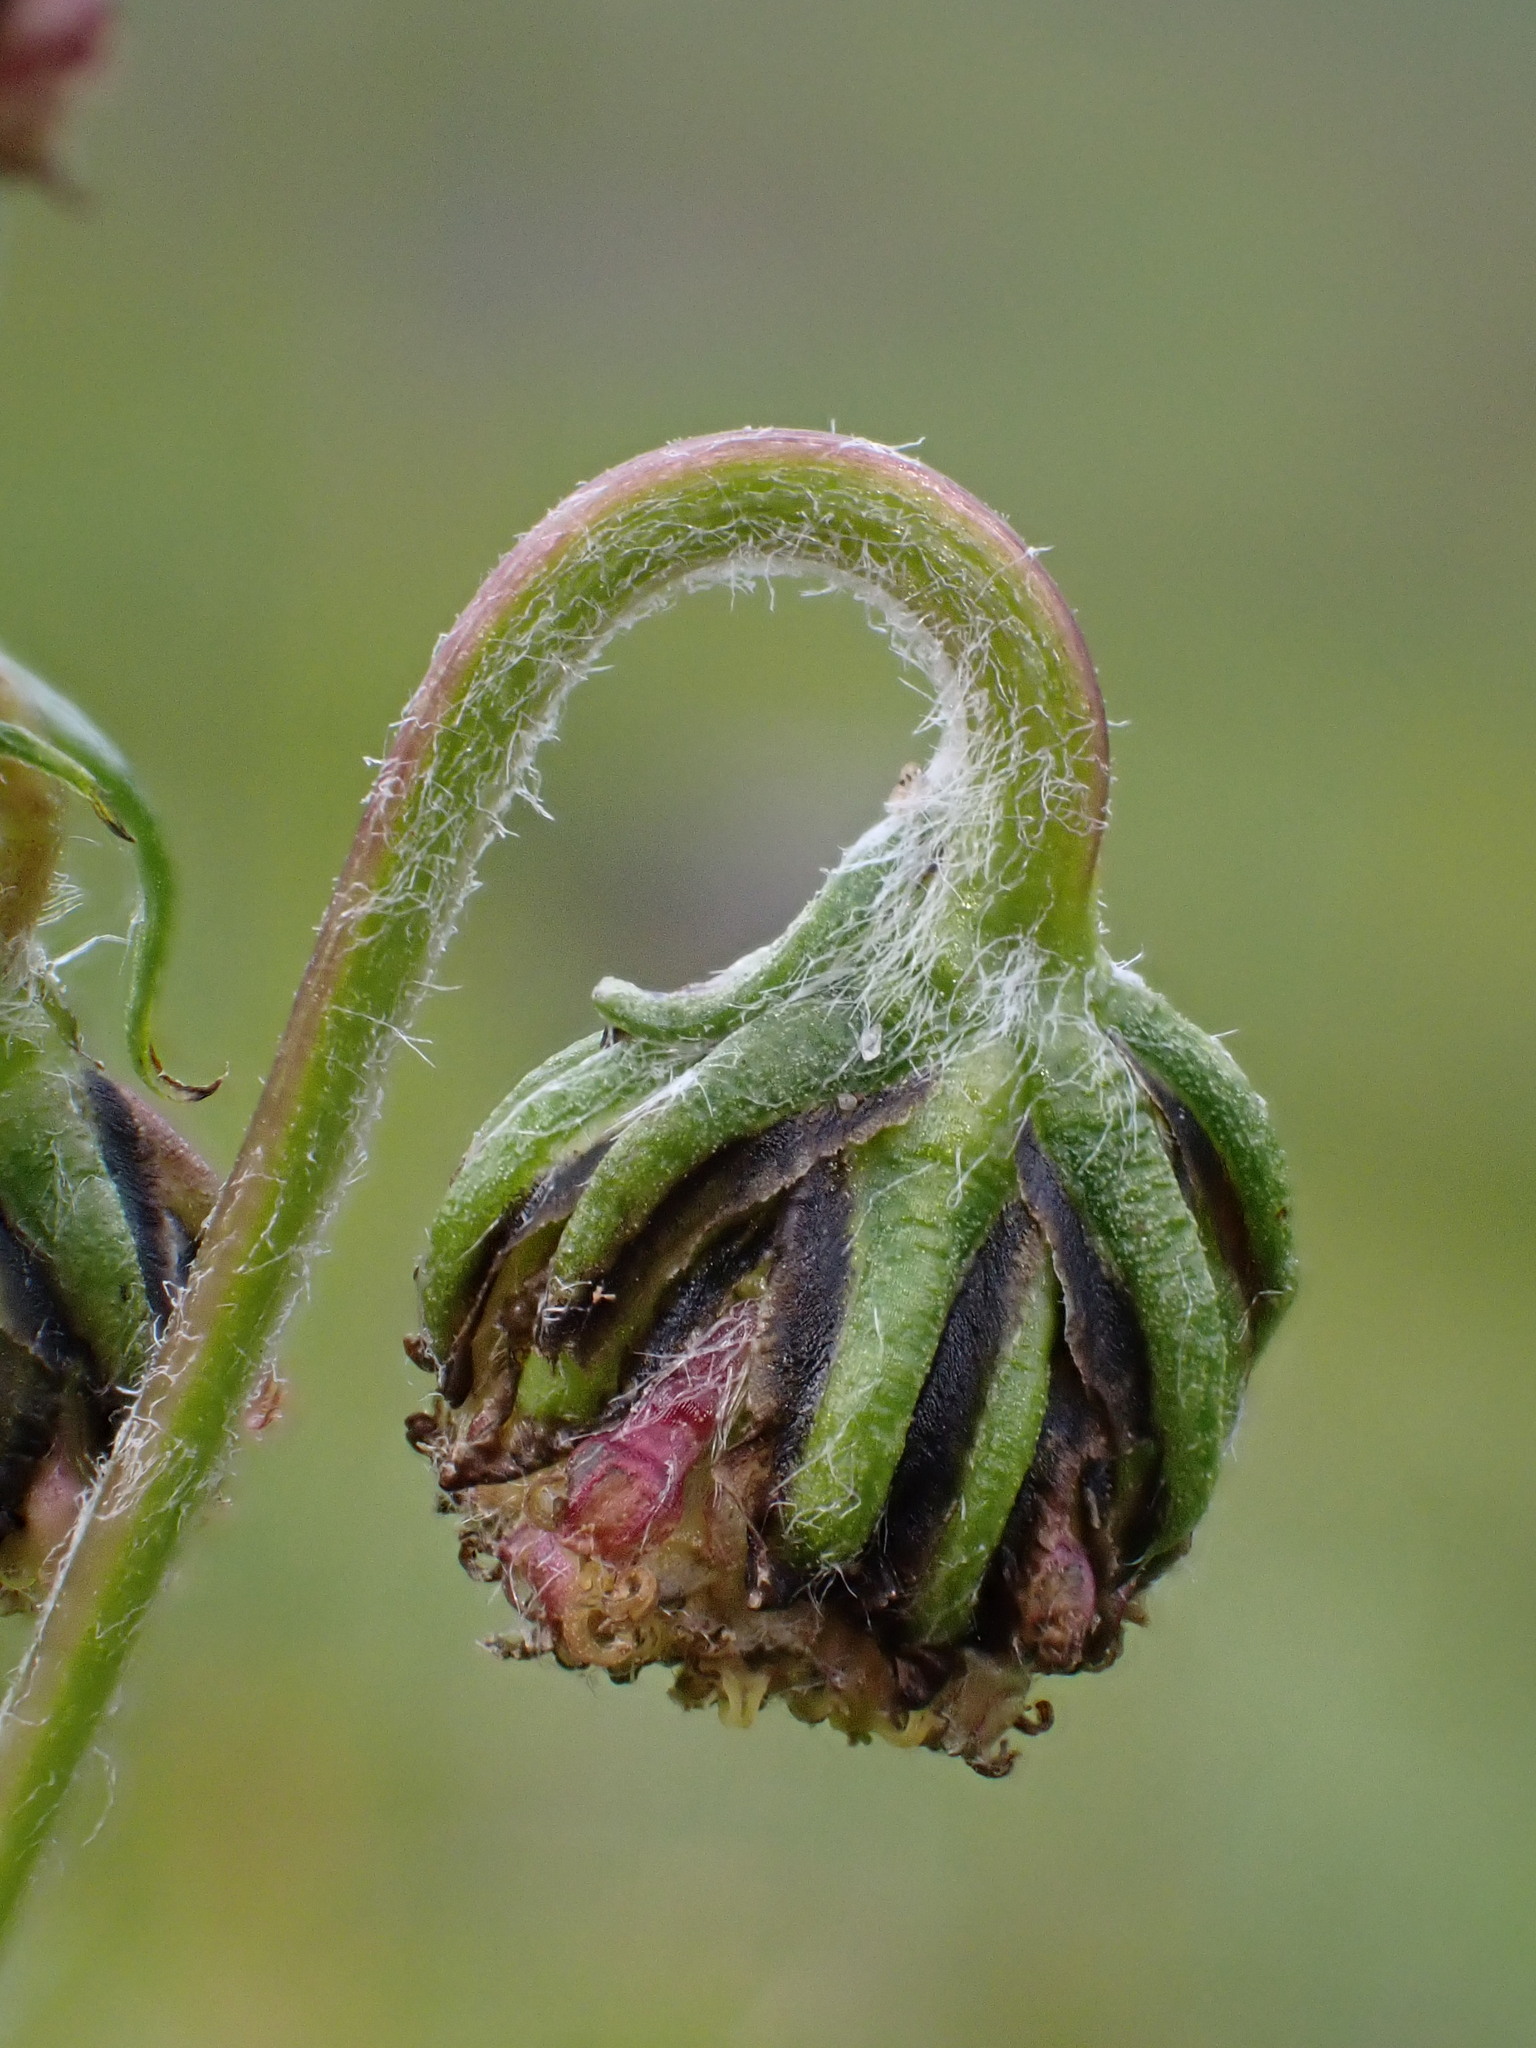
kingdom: Plantae
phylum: Tracheophyta
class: Magnoliopsida
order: Asterales
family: Asteraceae
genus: Artemisia
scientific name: Artemisia norvegica
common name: Norwegian mugwort
